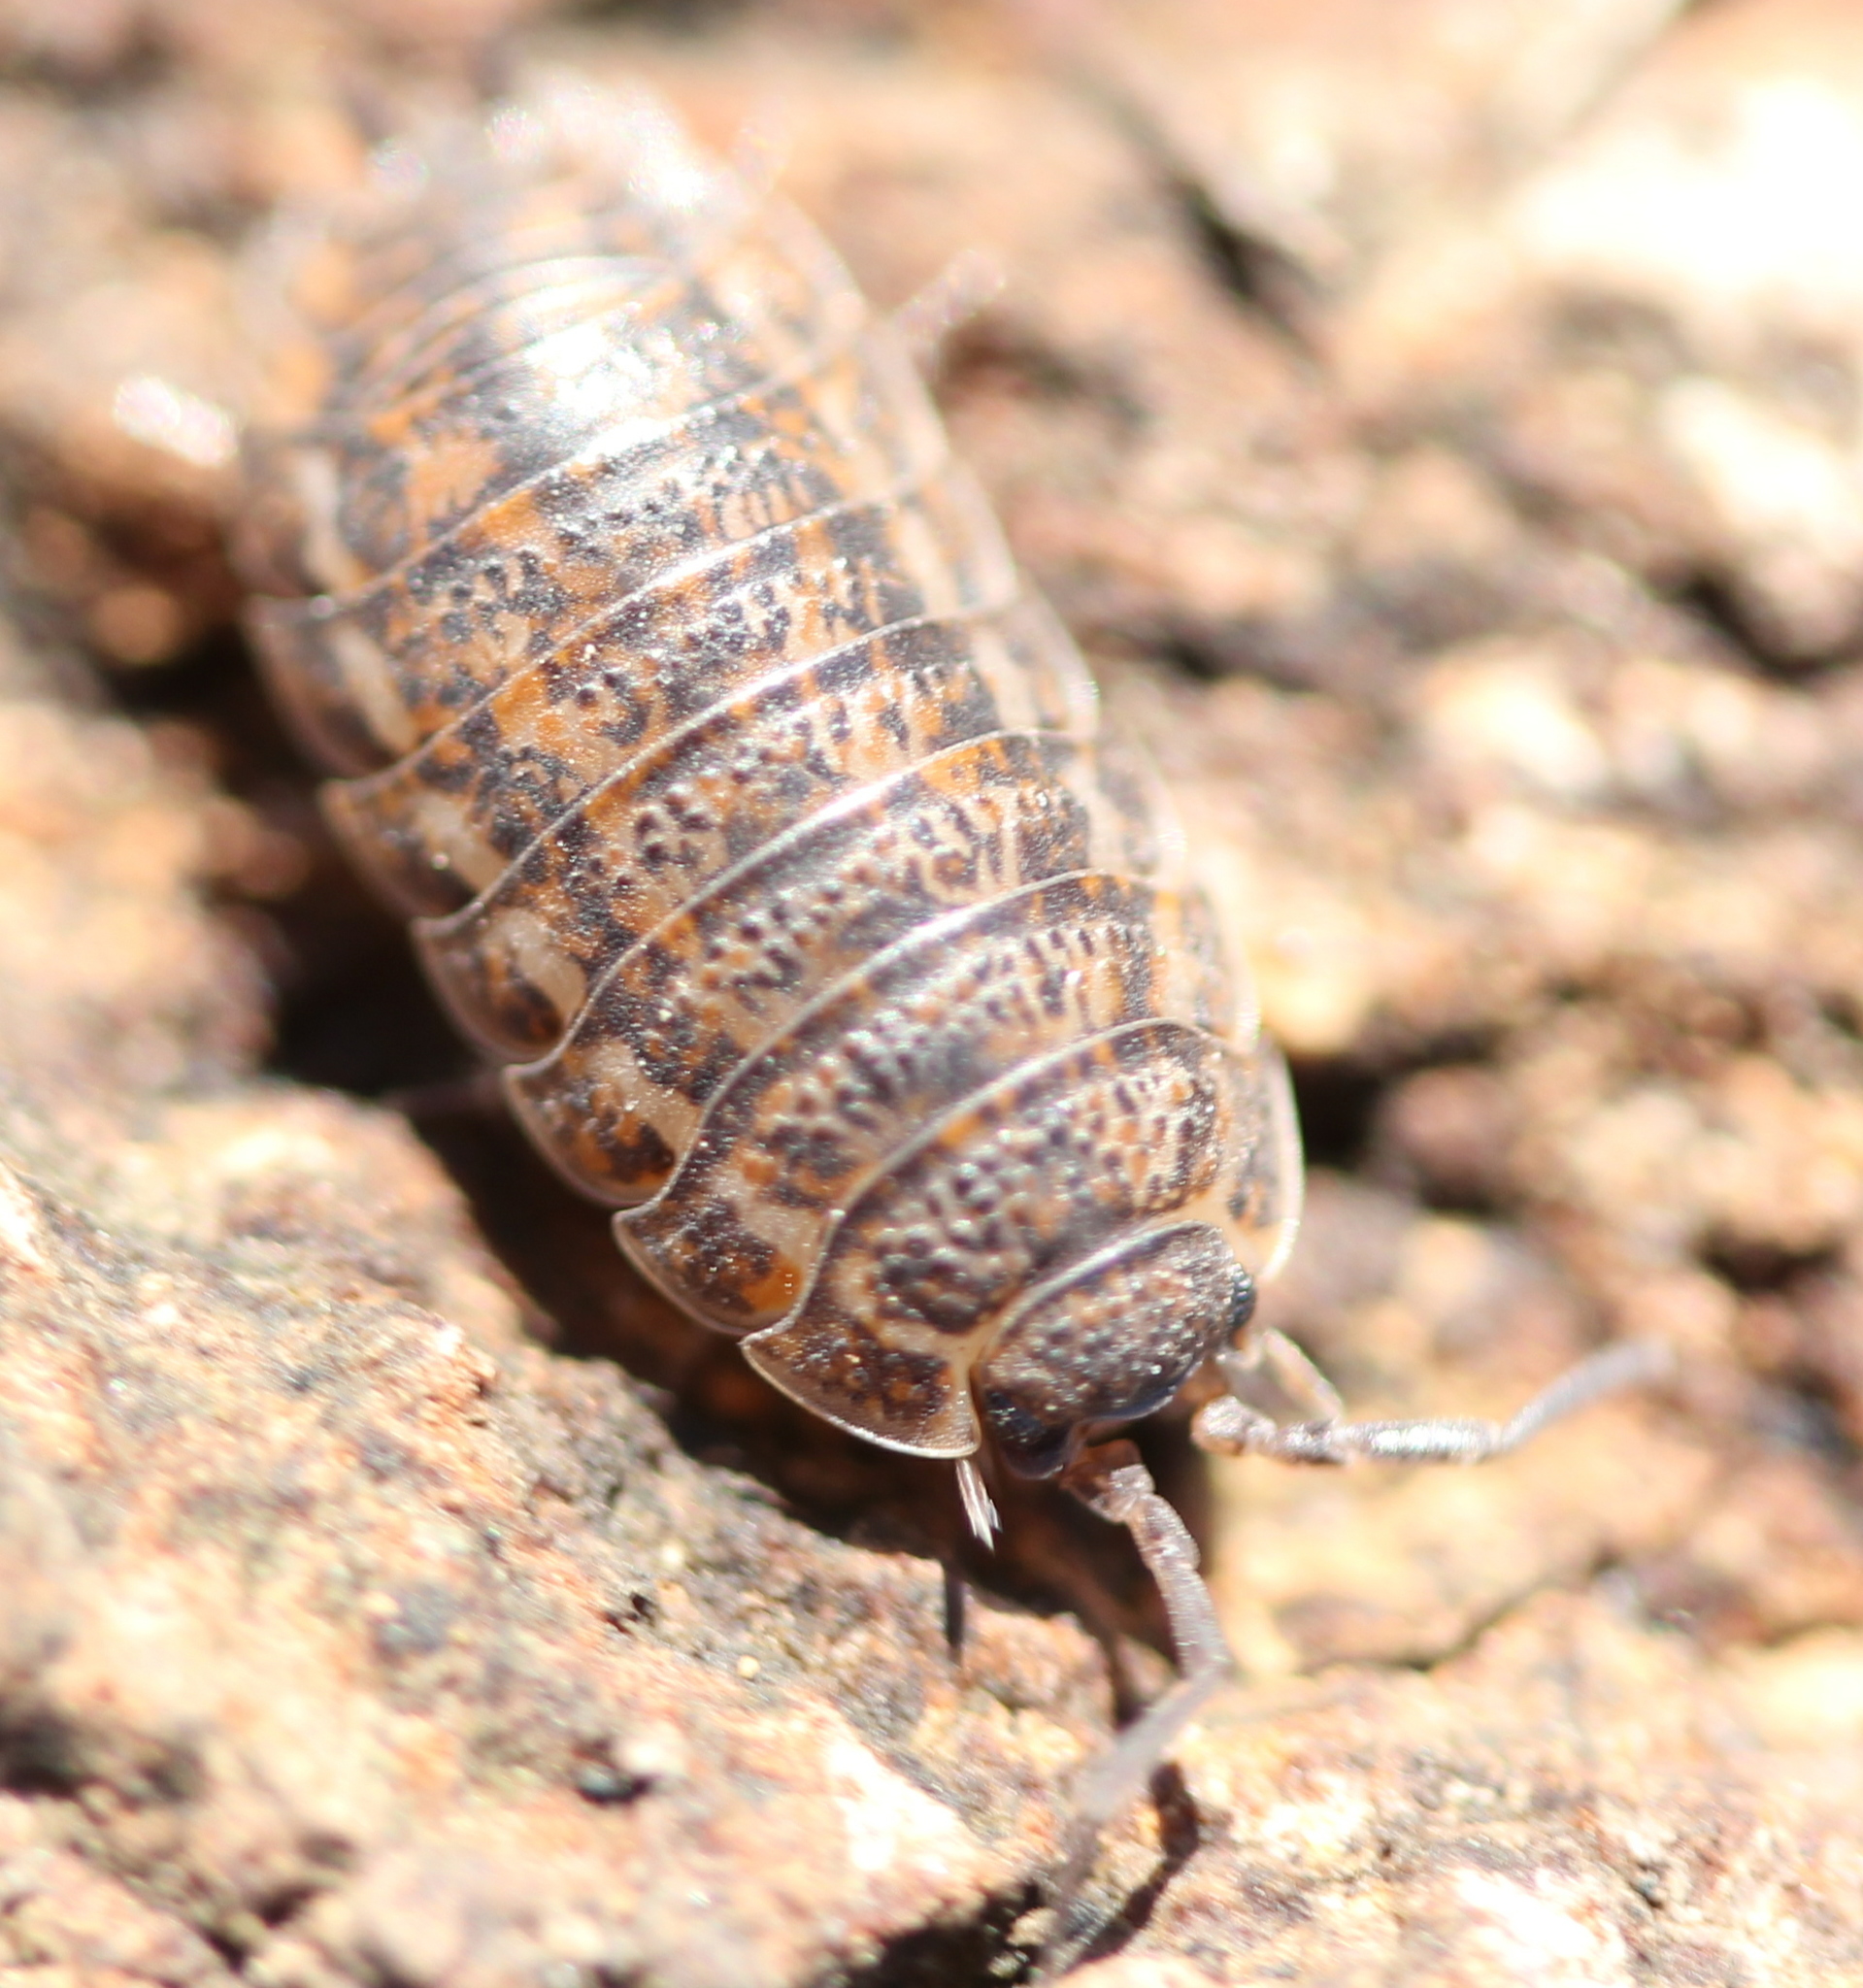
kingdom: Animalia
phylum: Arthropoda
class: Malacostraca
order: Isopoda
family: Trachelipodidae
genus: Trachelipus
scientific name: Trachelipus rathkii
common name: Isopod
